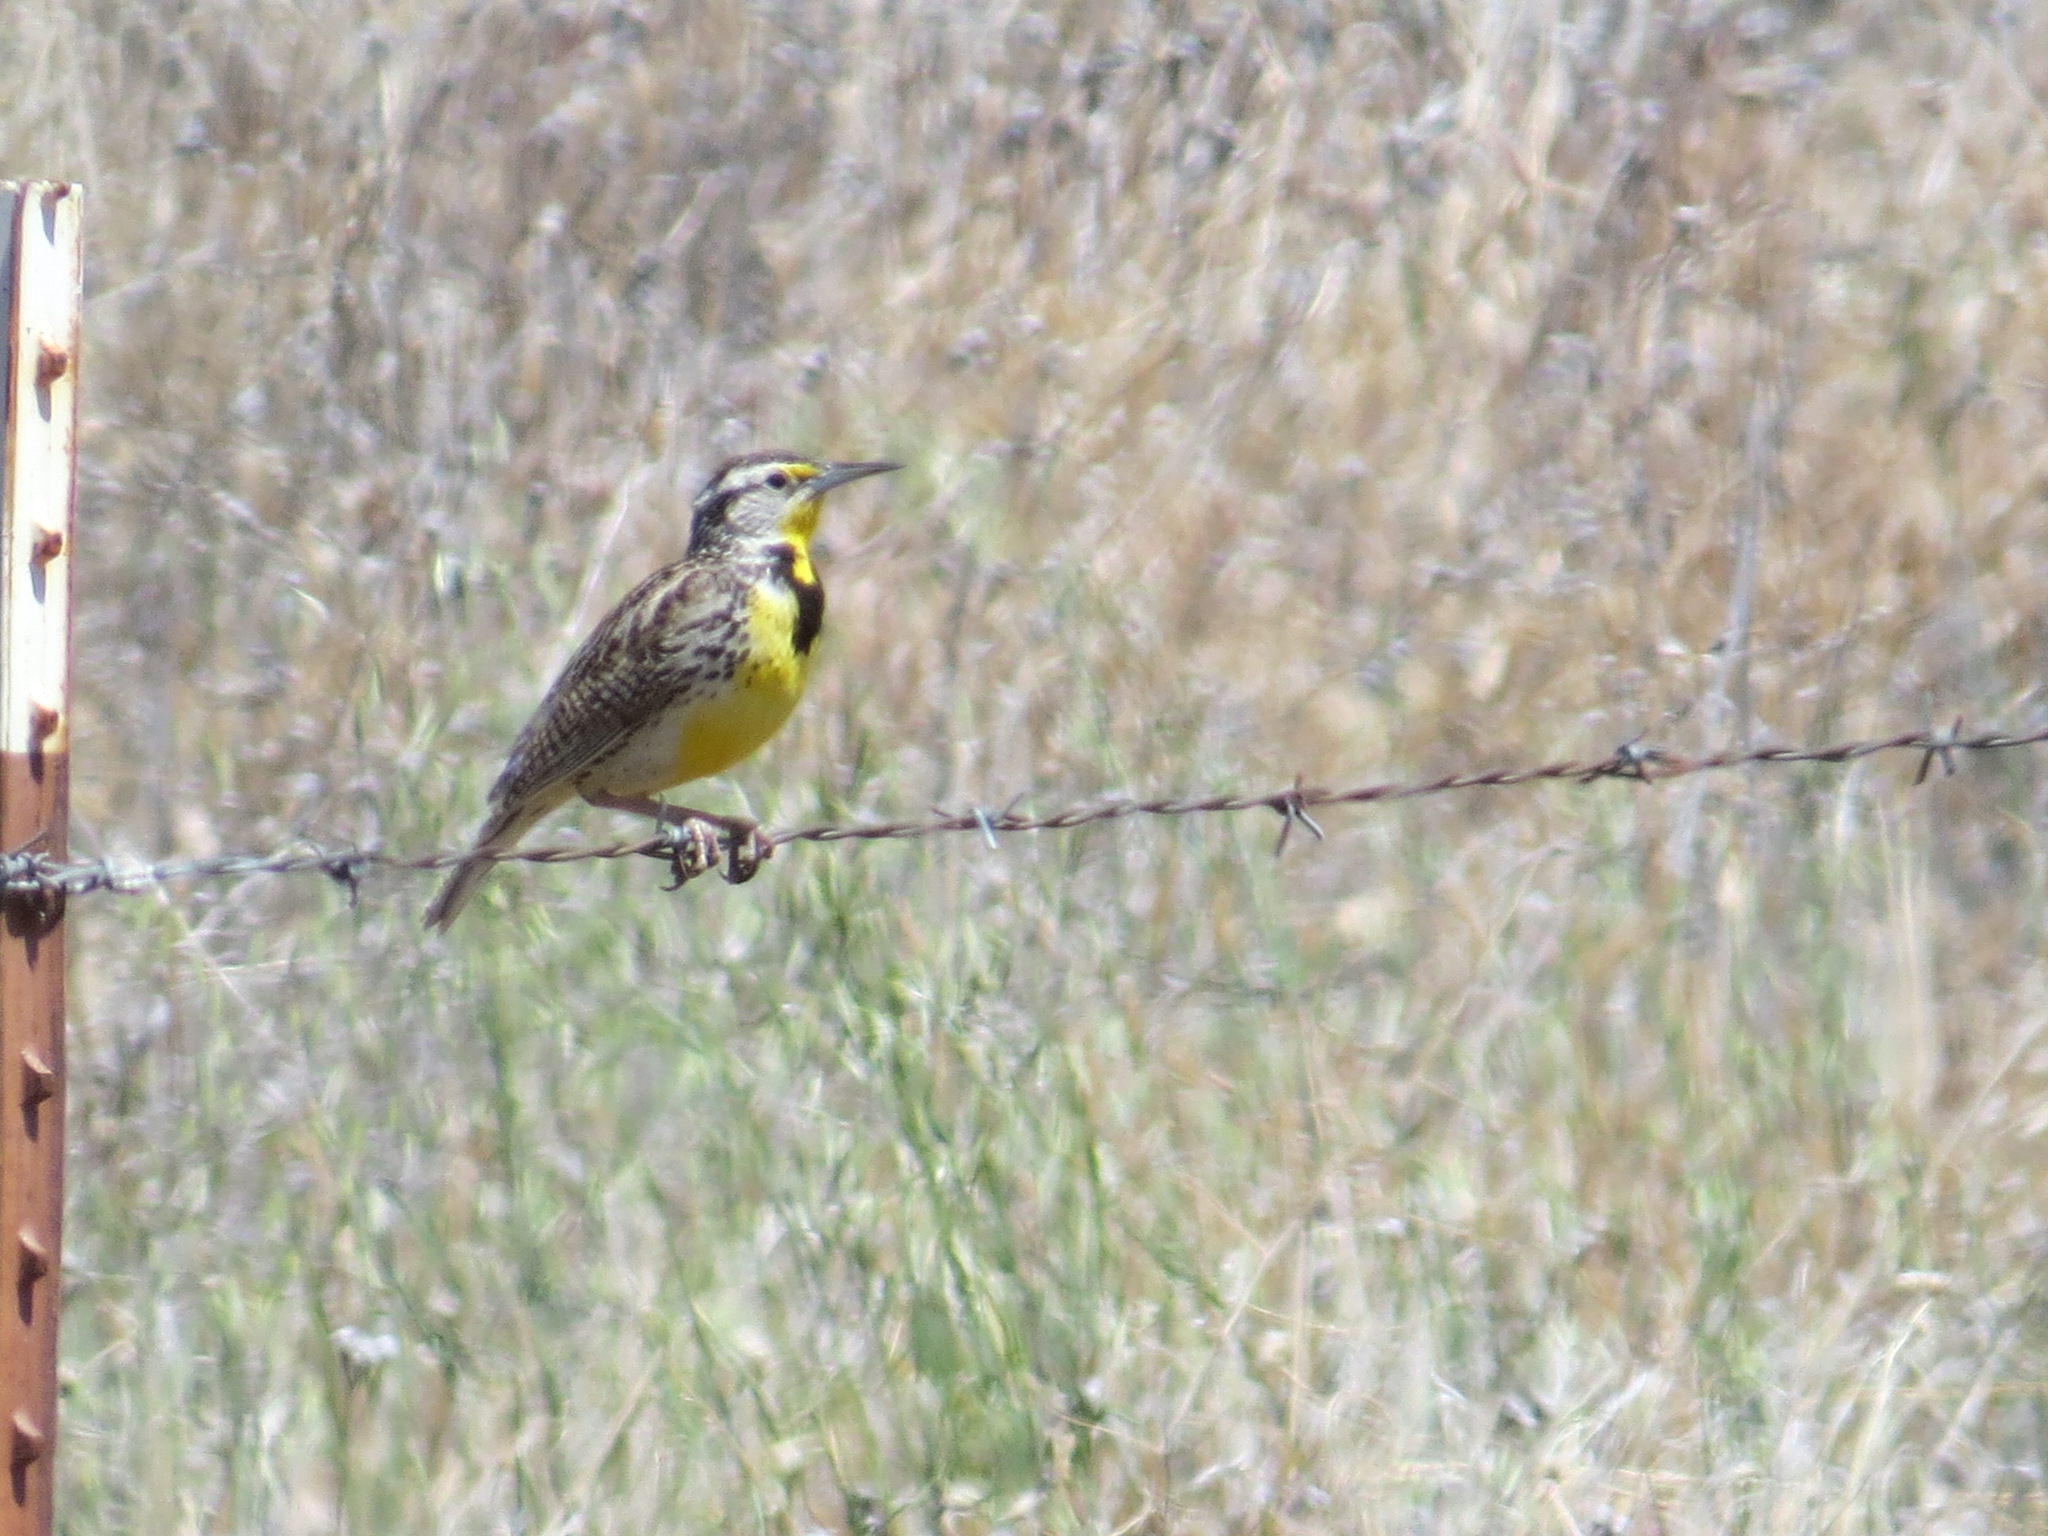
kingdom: Animalia
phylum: Chordata
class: Aves
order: Passeriformes
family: Icteridae
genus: Sturnella
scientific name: Sturnella neglecta
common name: Western meadowlark
